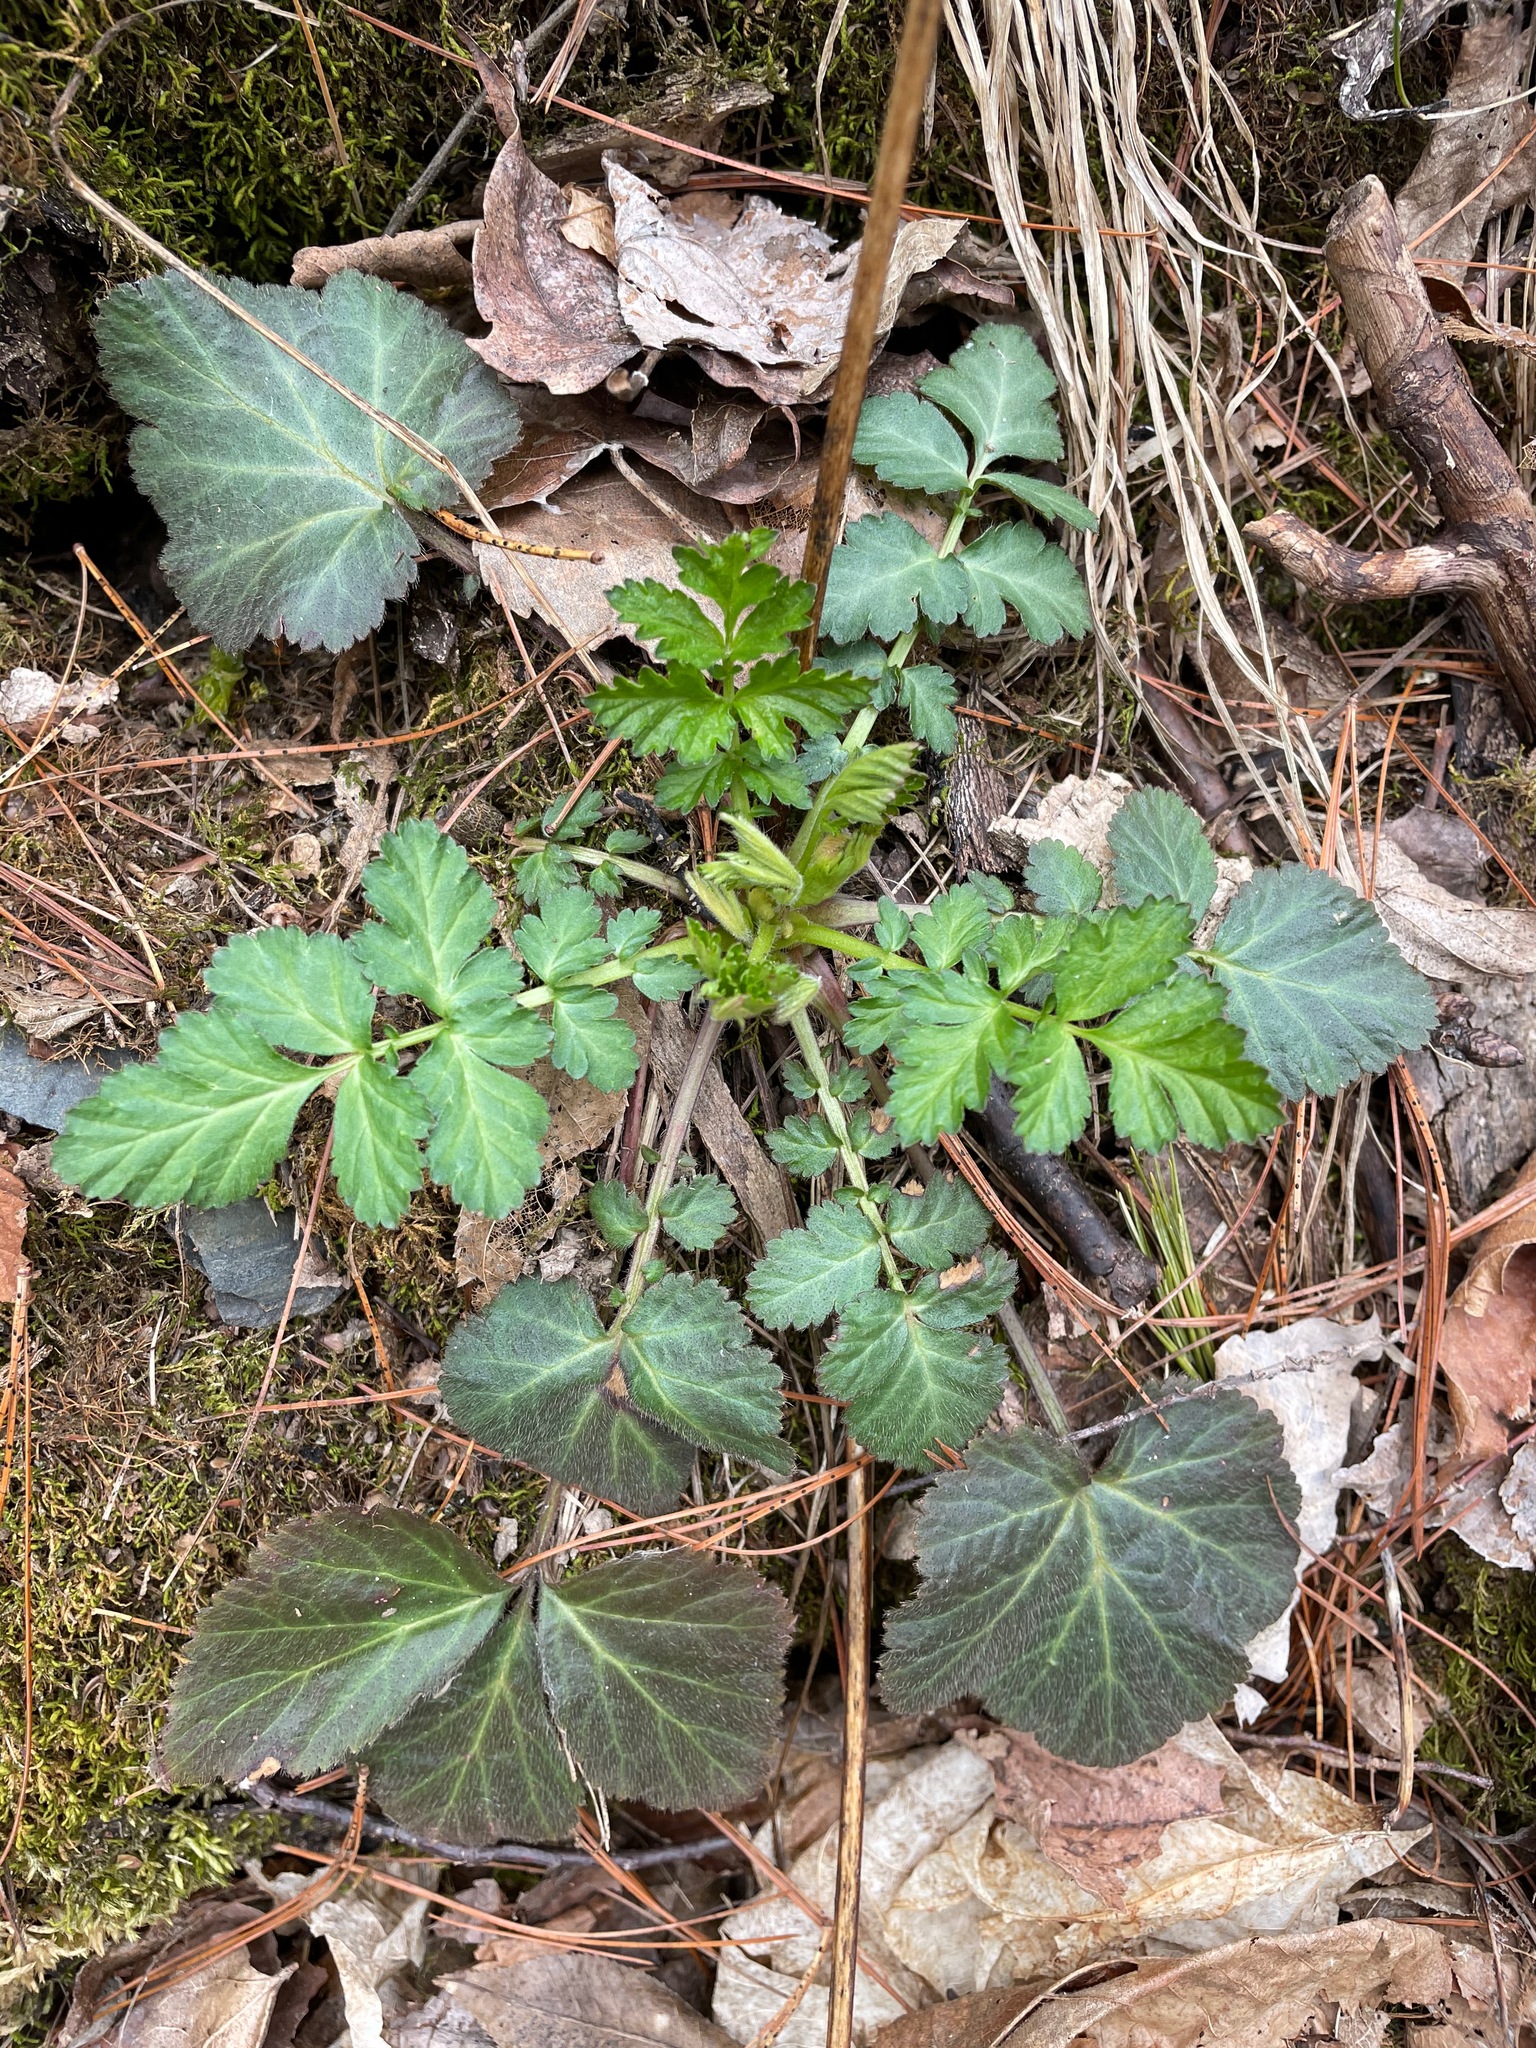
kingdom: Plantae
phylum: Tracheophyta
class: Magnoliopsida
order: Rosales
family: Rosaceae
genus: Geum
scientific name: Geum canadense
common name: White avens
